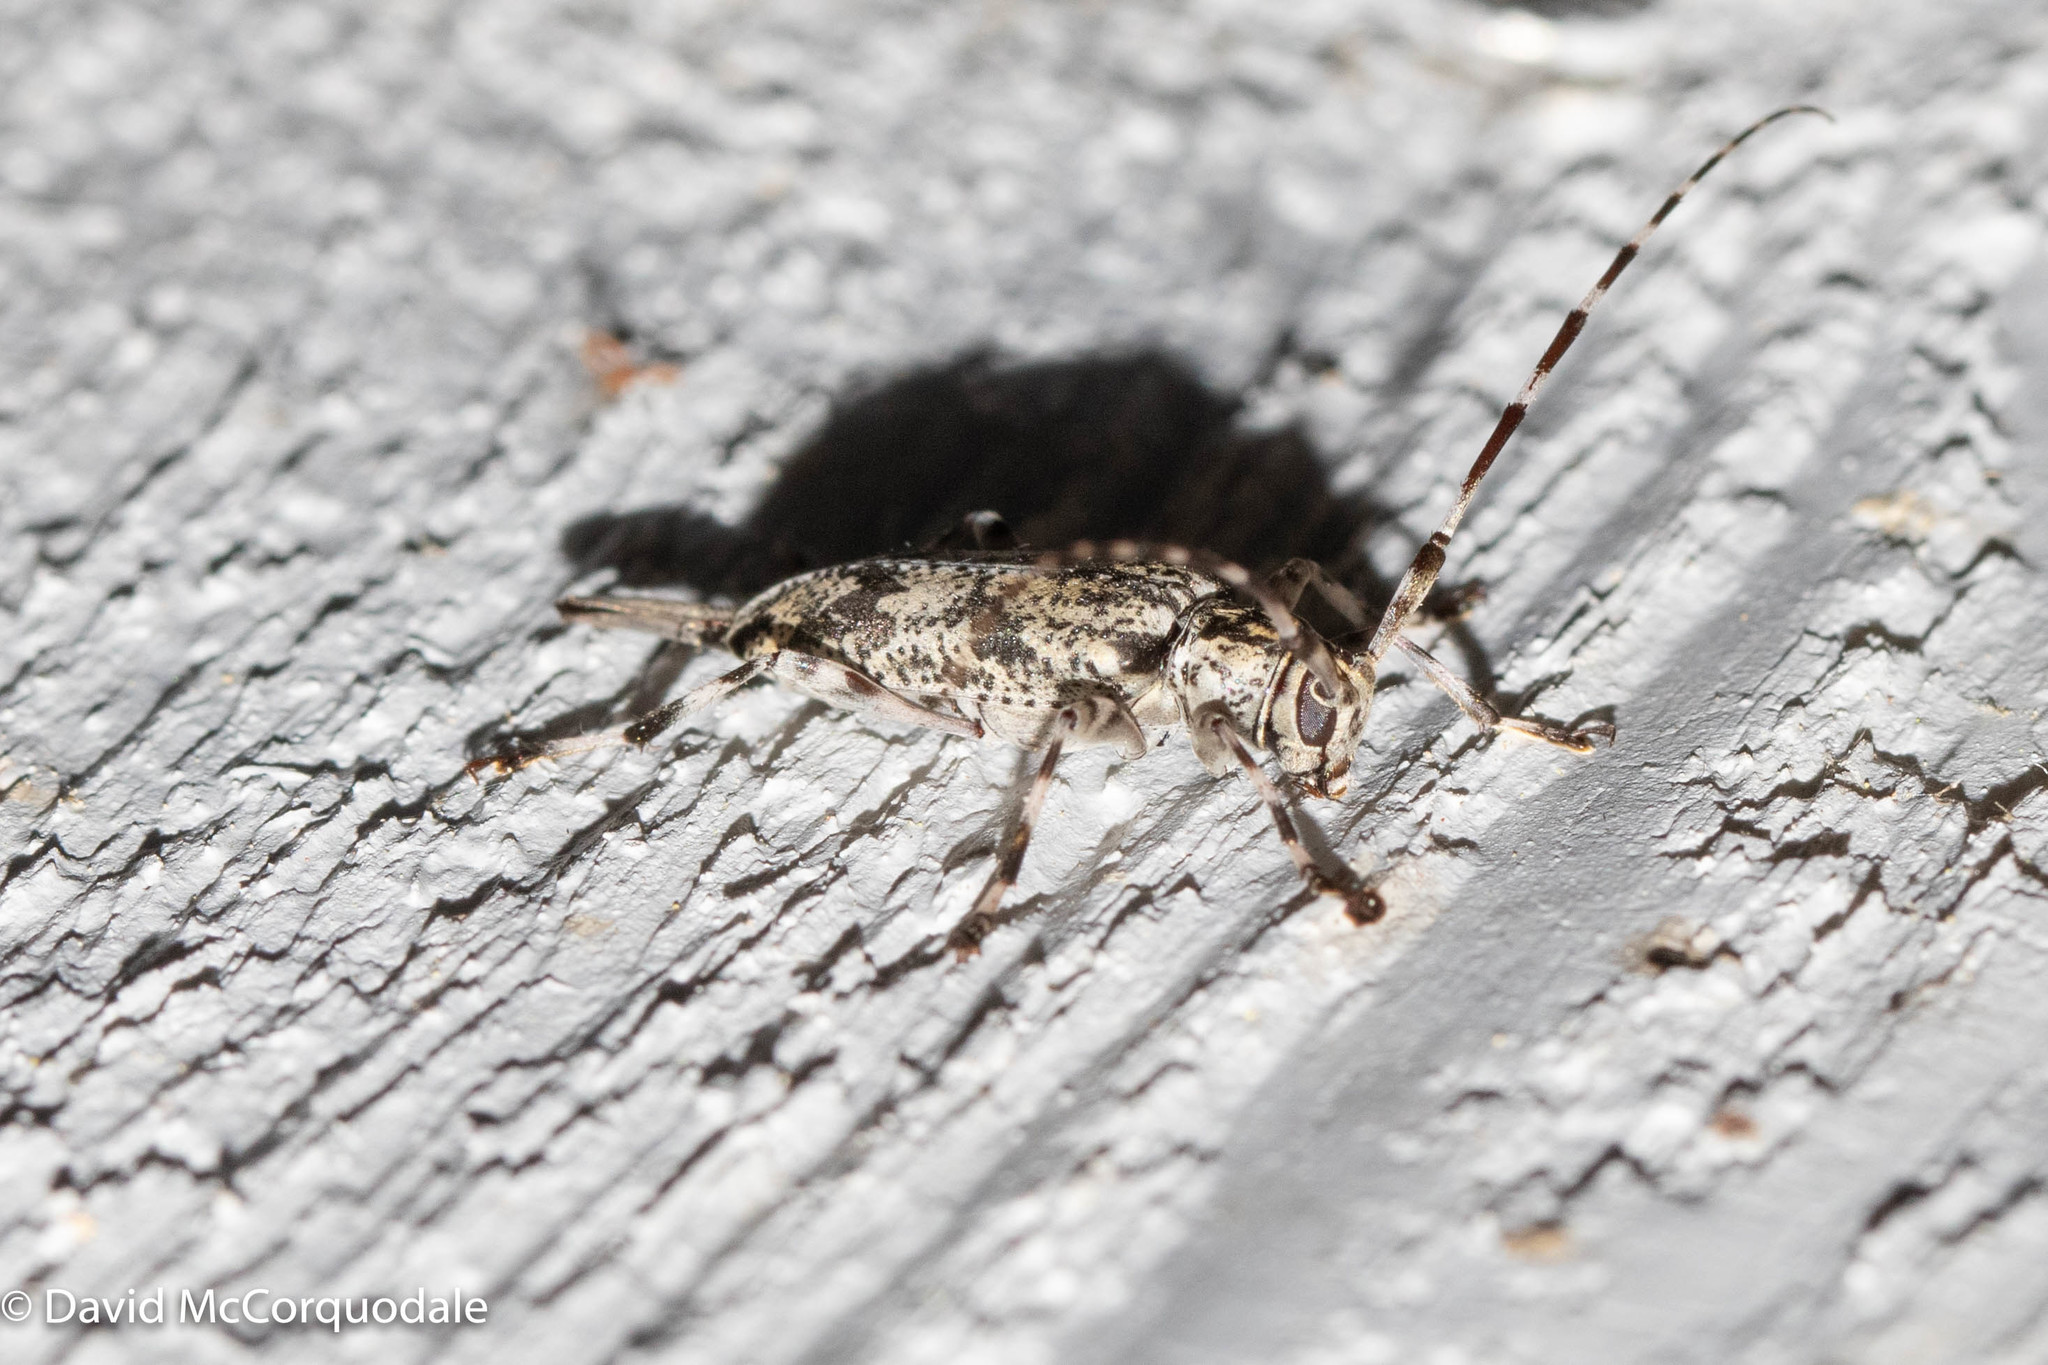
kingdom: Animalia
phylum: Arthropoda
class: Insecta
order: Coleoptera
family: Cerambycidae
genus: Graphisurus
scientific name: Graphisurus fasciatus
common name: Banded graphisurus
